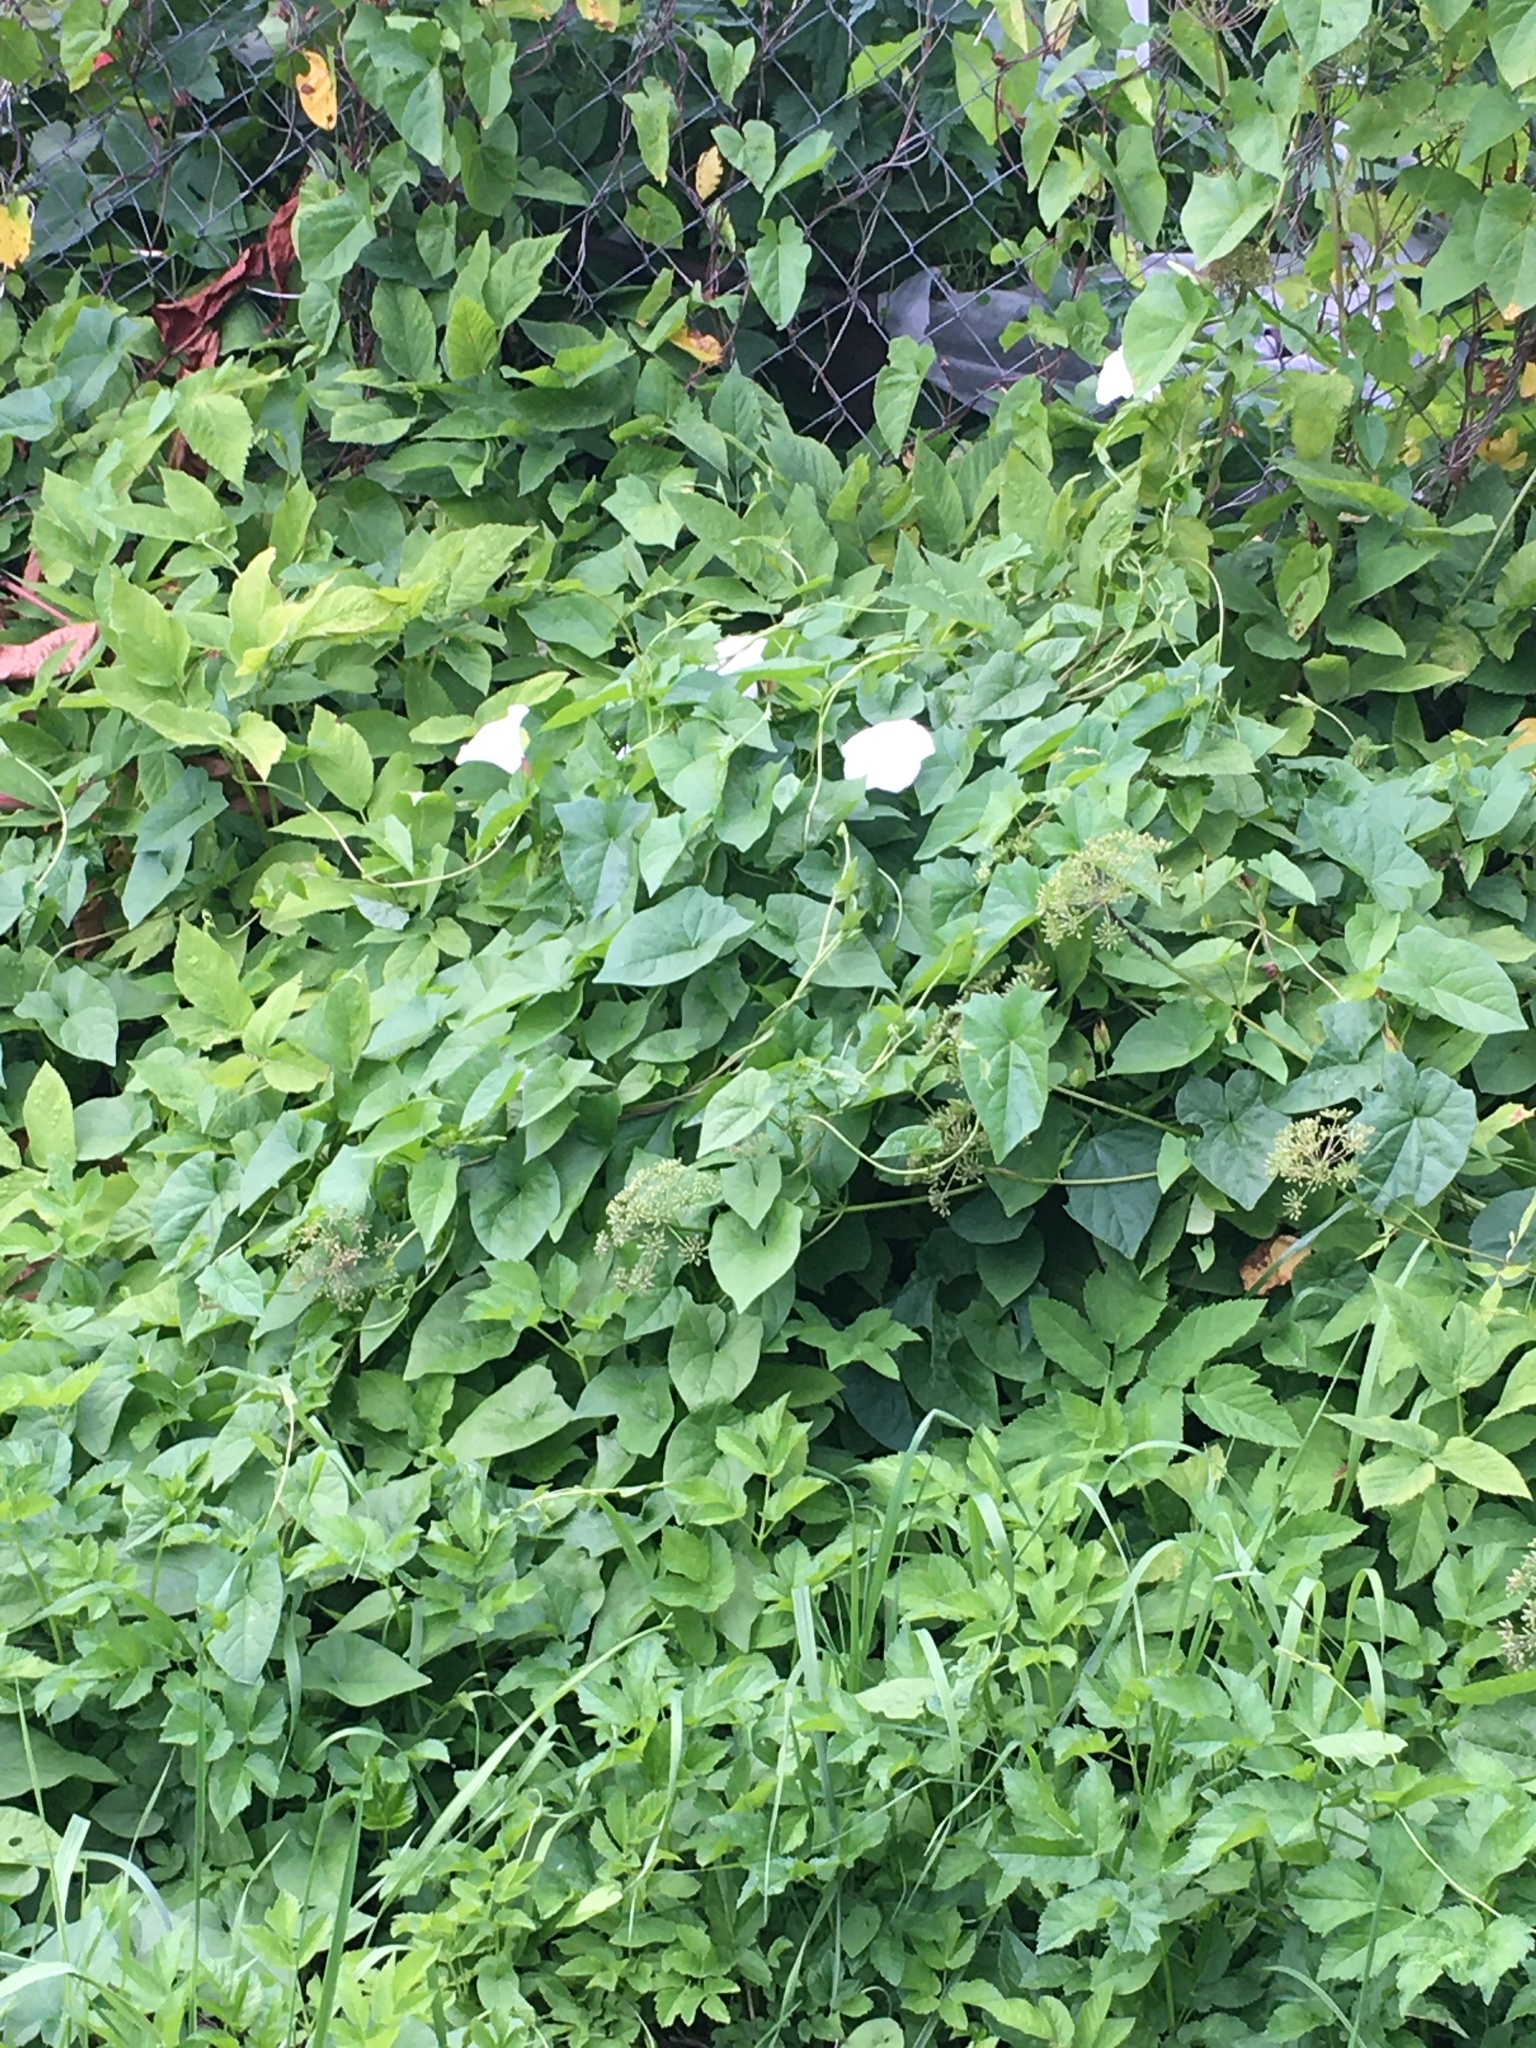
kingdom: Plantae
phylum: Tracheophyta
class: Magnoliopsida
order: Solanales
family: Convolvulaceae
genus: Calystegia
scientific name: Calystegia
